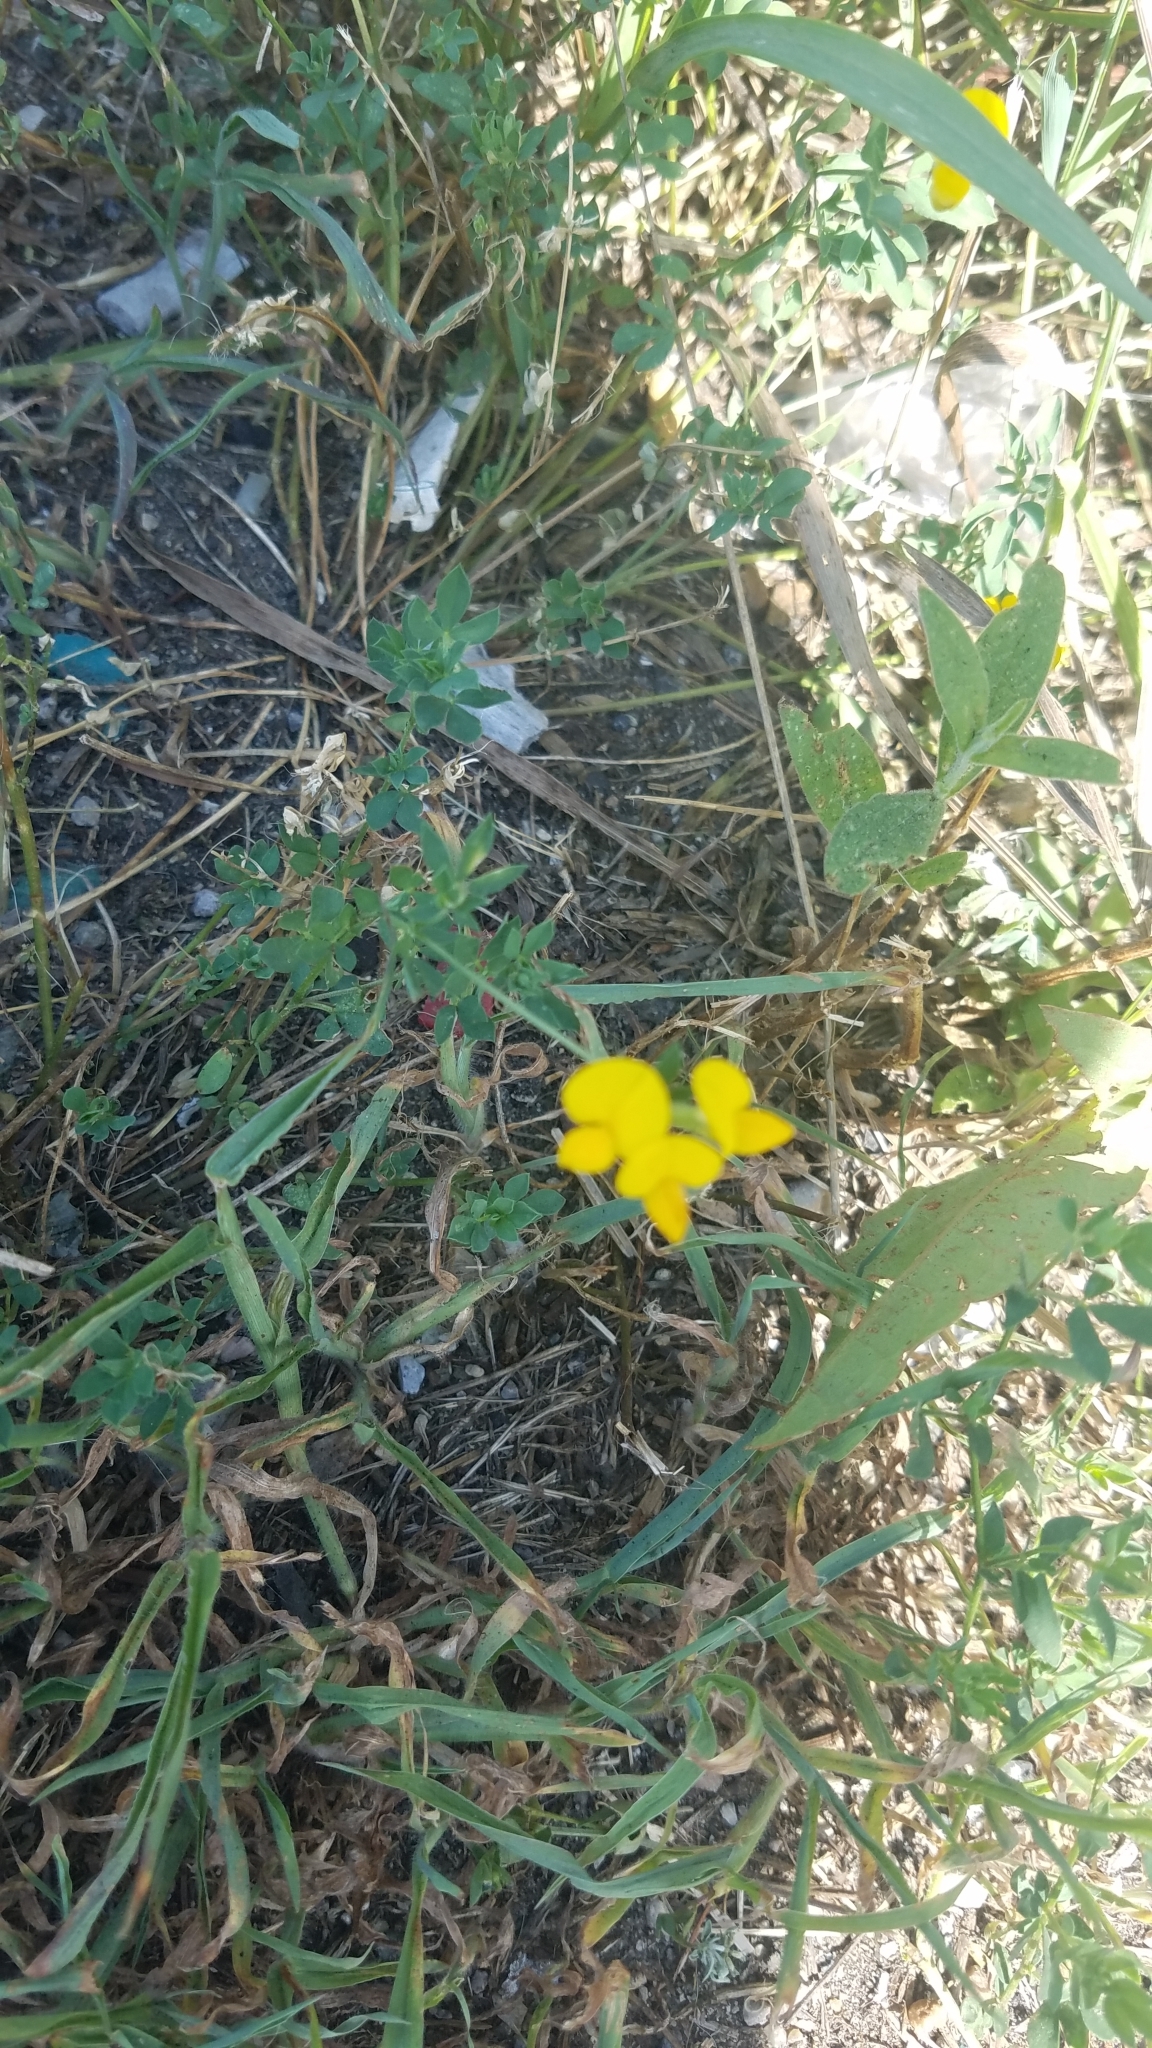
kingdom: Plantae
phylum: Tracheophyta
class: Magnoliopsida
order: Fabales
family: Fabaceae
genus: Lotus
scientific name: Lotus corniculatus
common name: Common bird's-foot-trefoil
